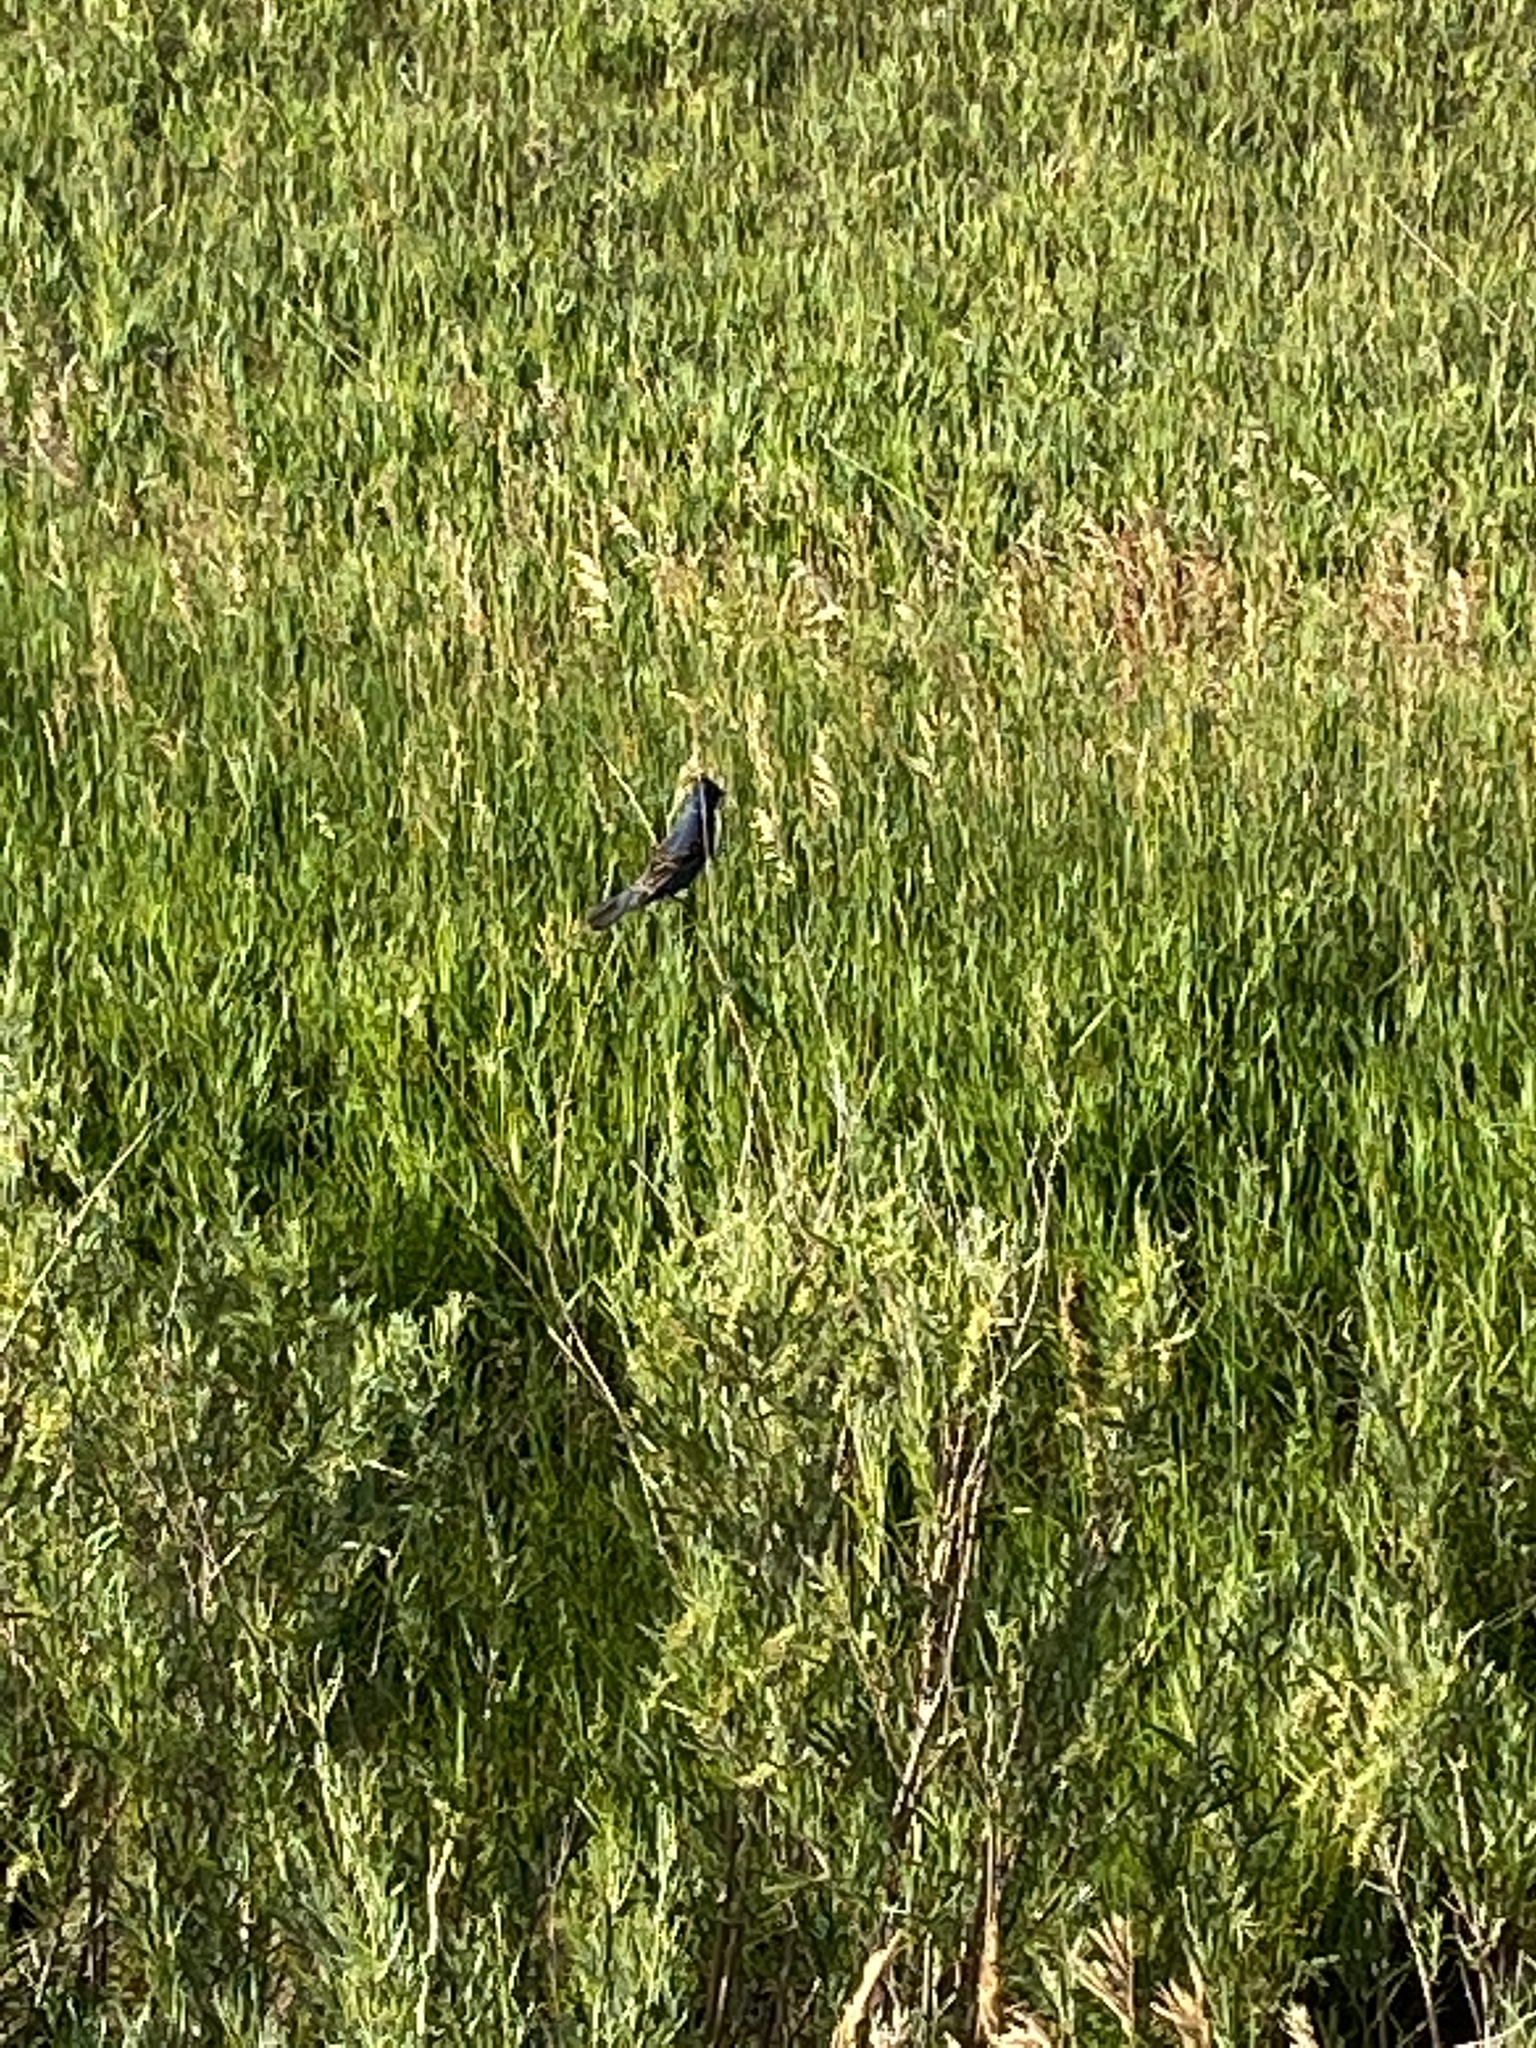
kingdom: Animalia
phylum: Chordata
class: Aves
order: Passeriformes
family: Cardinalidae
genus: Passerina
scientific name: Passerina caerulea
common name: Blue grosbeak
